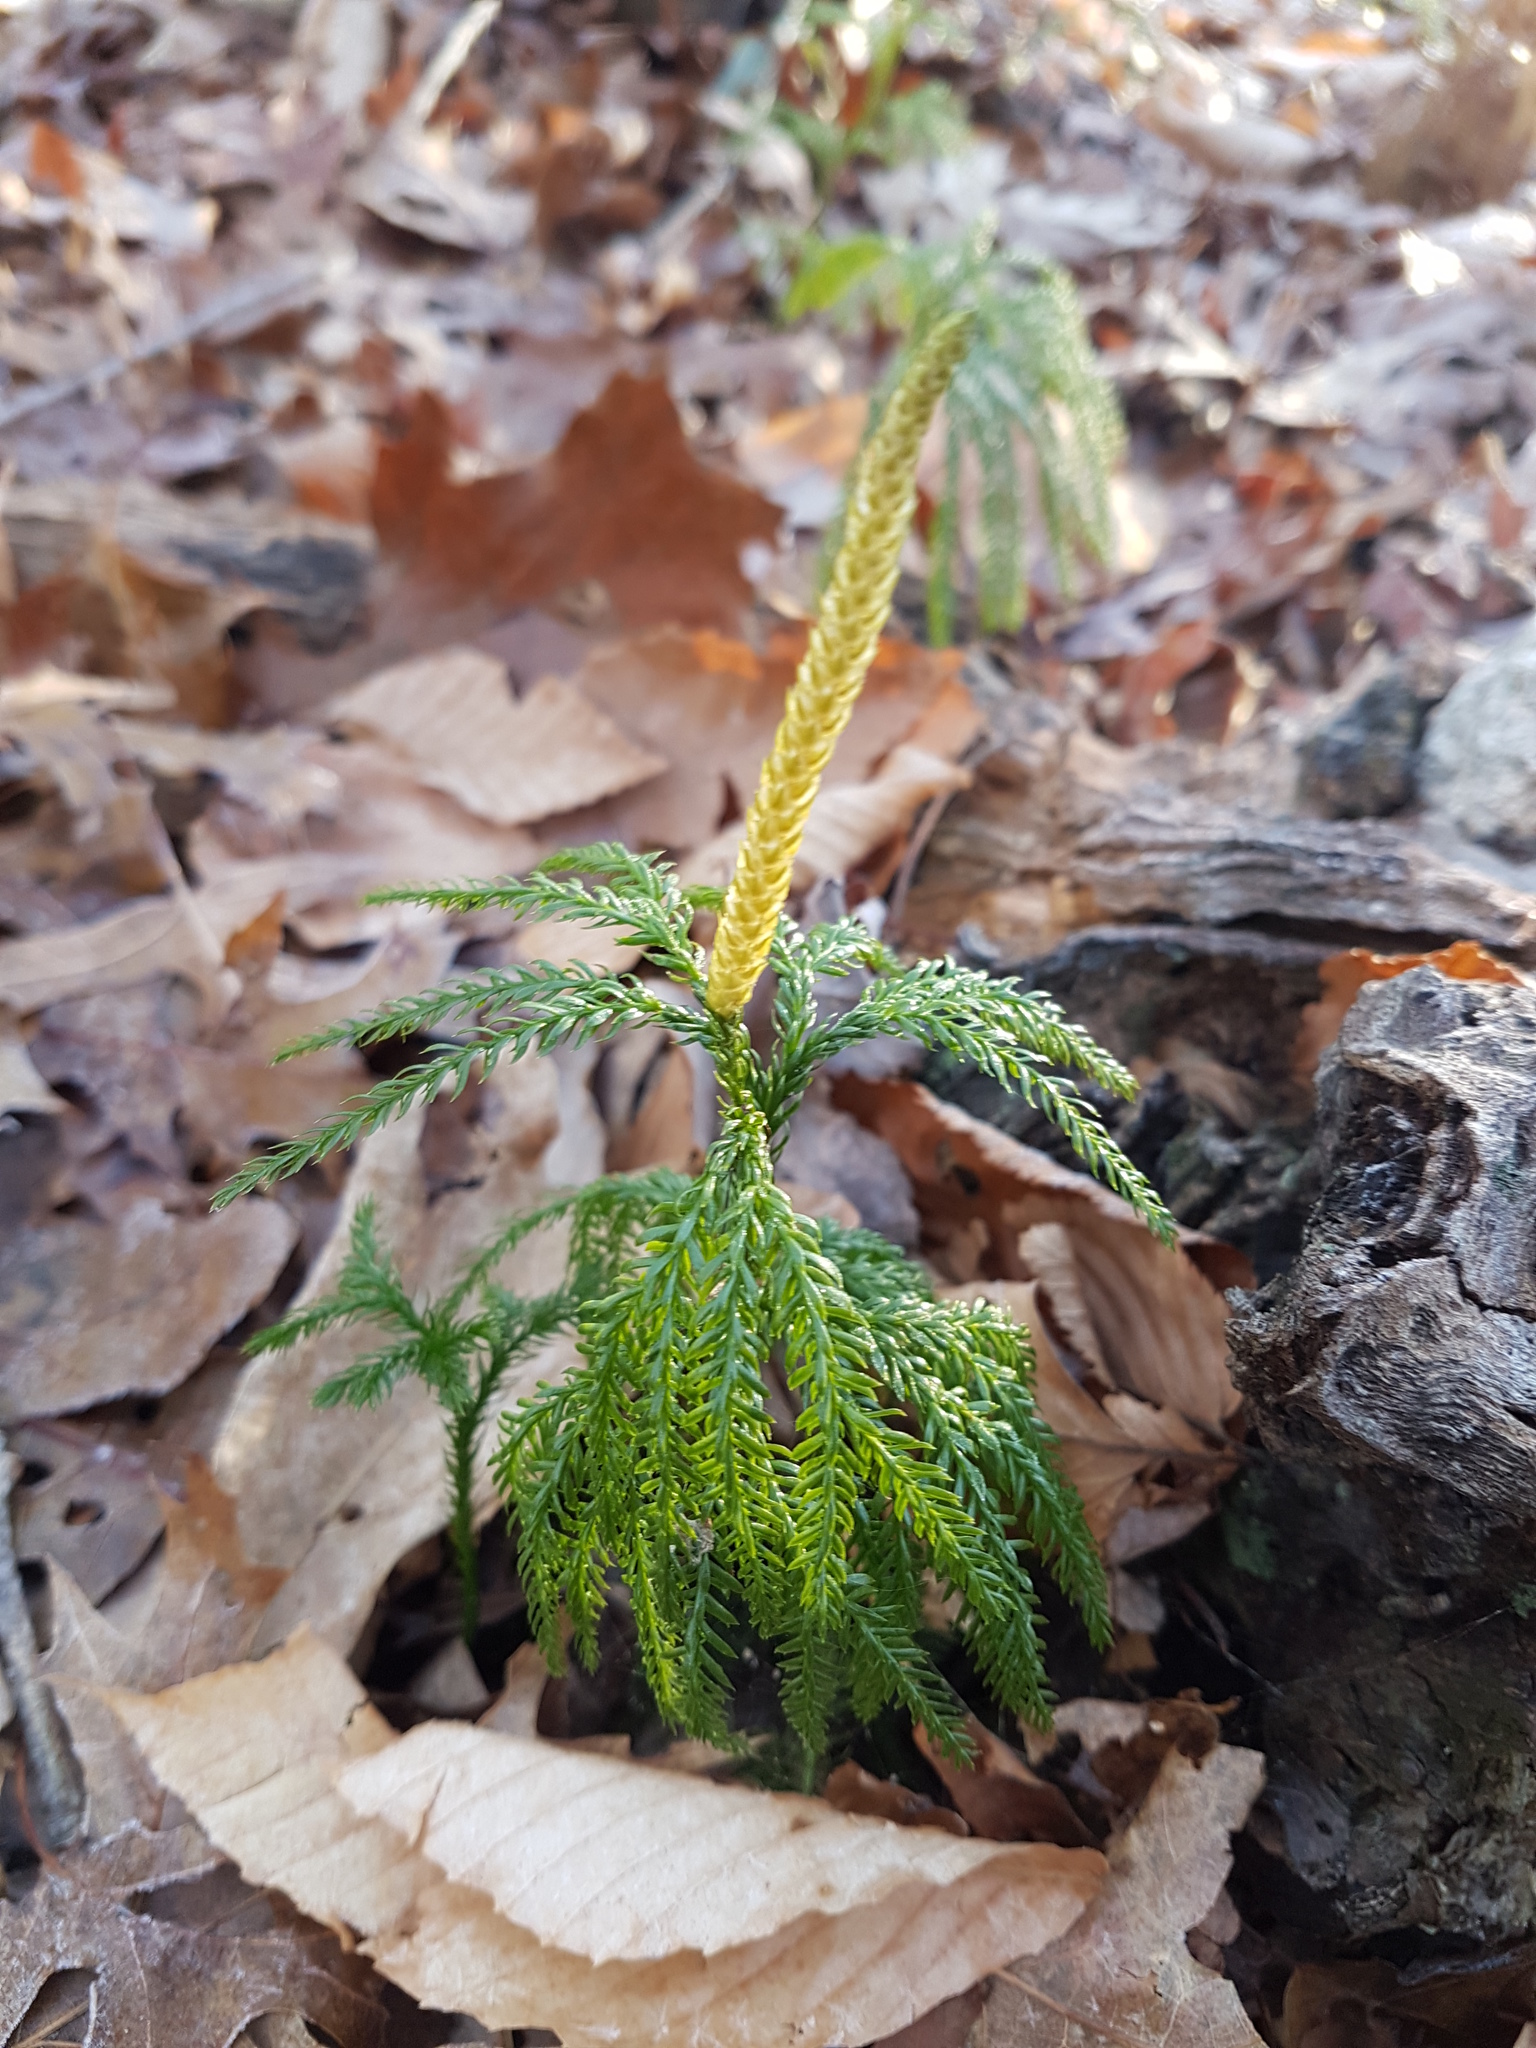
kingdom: Plantae
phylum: Tracheophyta
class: Lycopodiopsida
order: Lycopodiales
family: Lycopodiaceae
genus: Diphasiastrum
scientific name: Diphasiastrum digitatum
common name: Southern running-pine
